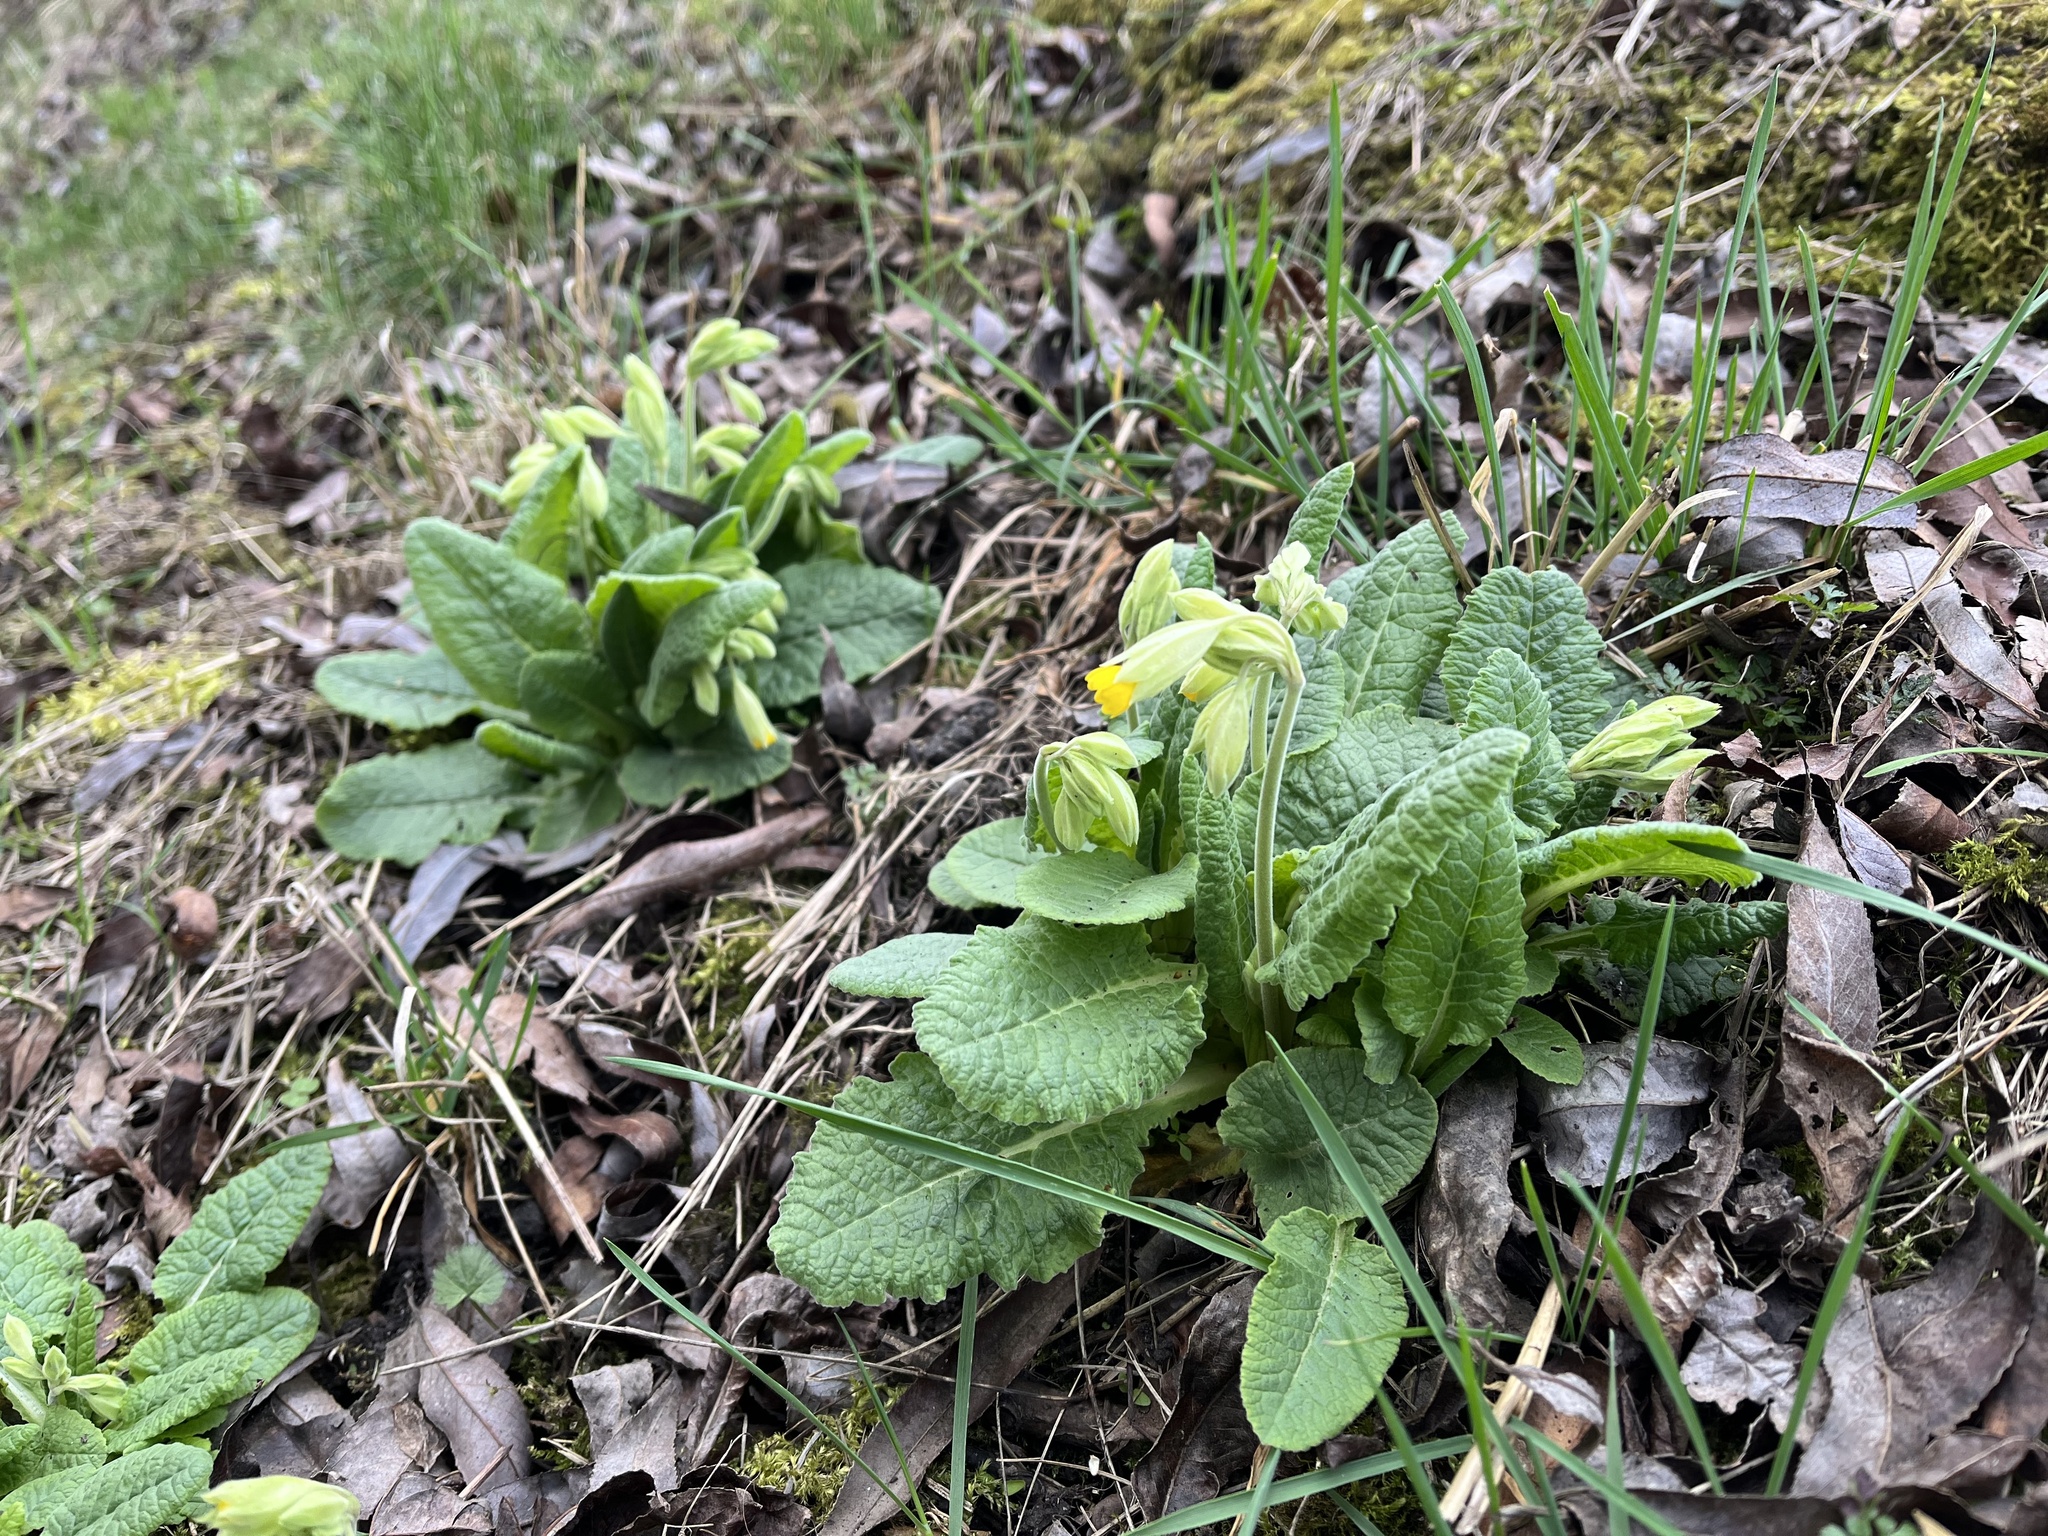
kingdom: Plantae
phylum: Tracheophyta
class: Magnoliopsida
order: Ericales
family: Primulaceae
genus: Primula
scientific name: Primula veris
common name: Cowslip
